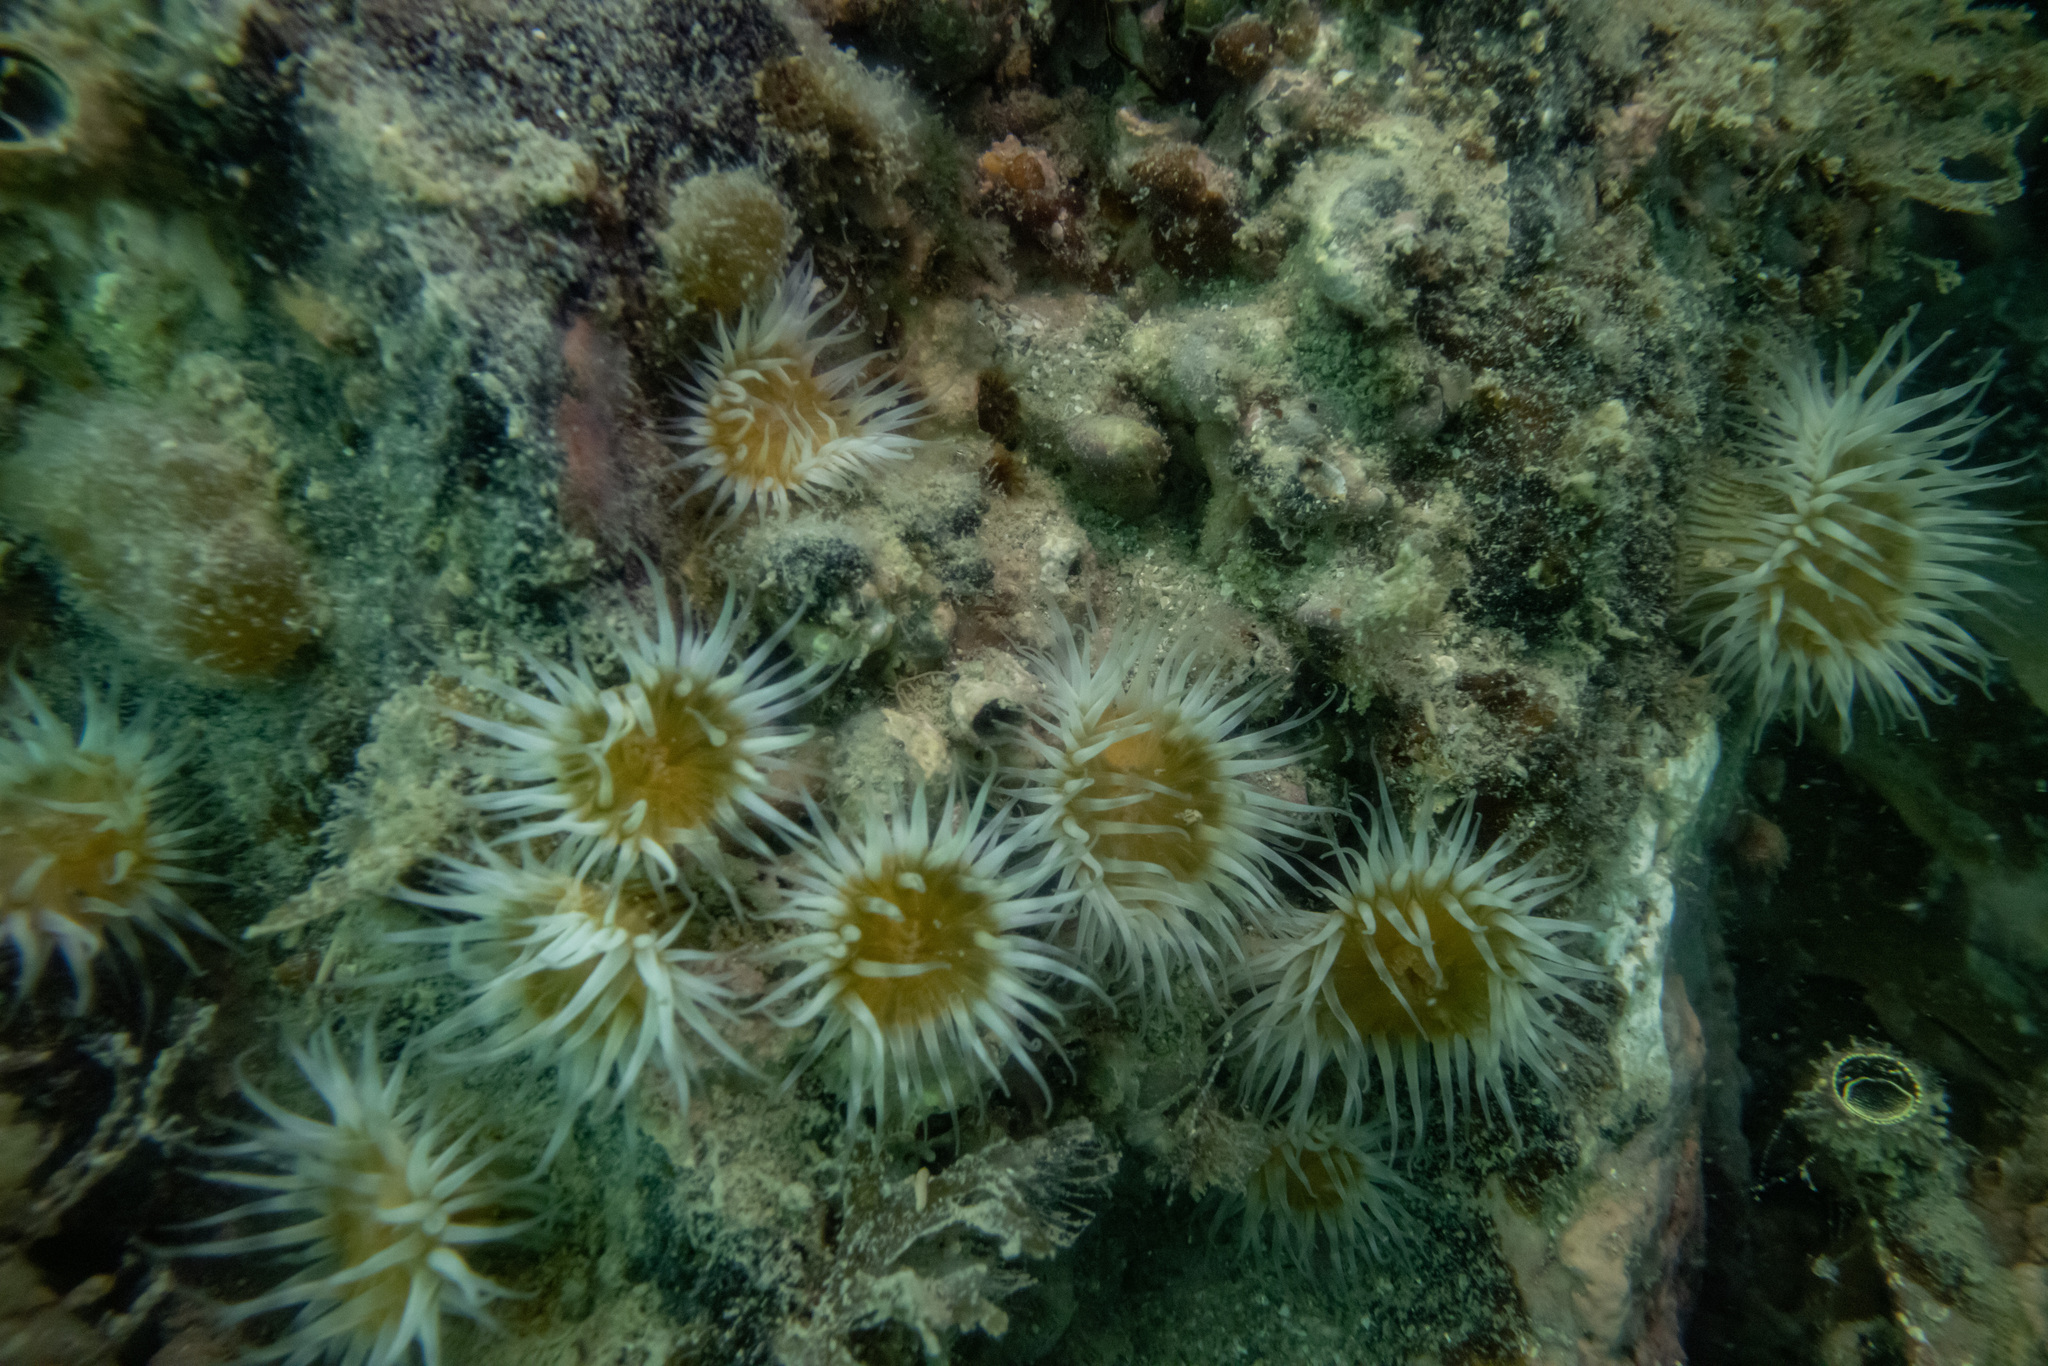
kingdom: Animalia
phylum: Cnidaria
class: Anthozoa
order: Actiniaria
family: Sagartiidae
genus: Anthothoe
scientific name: Anthothoe albocincta
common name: Orange striped anemone
